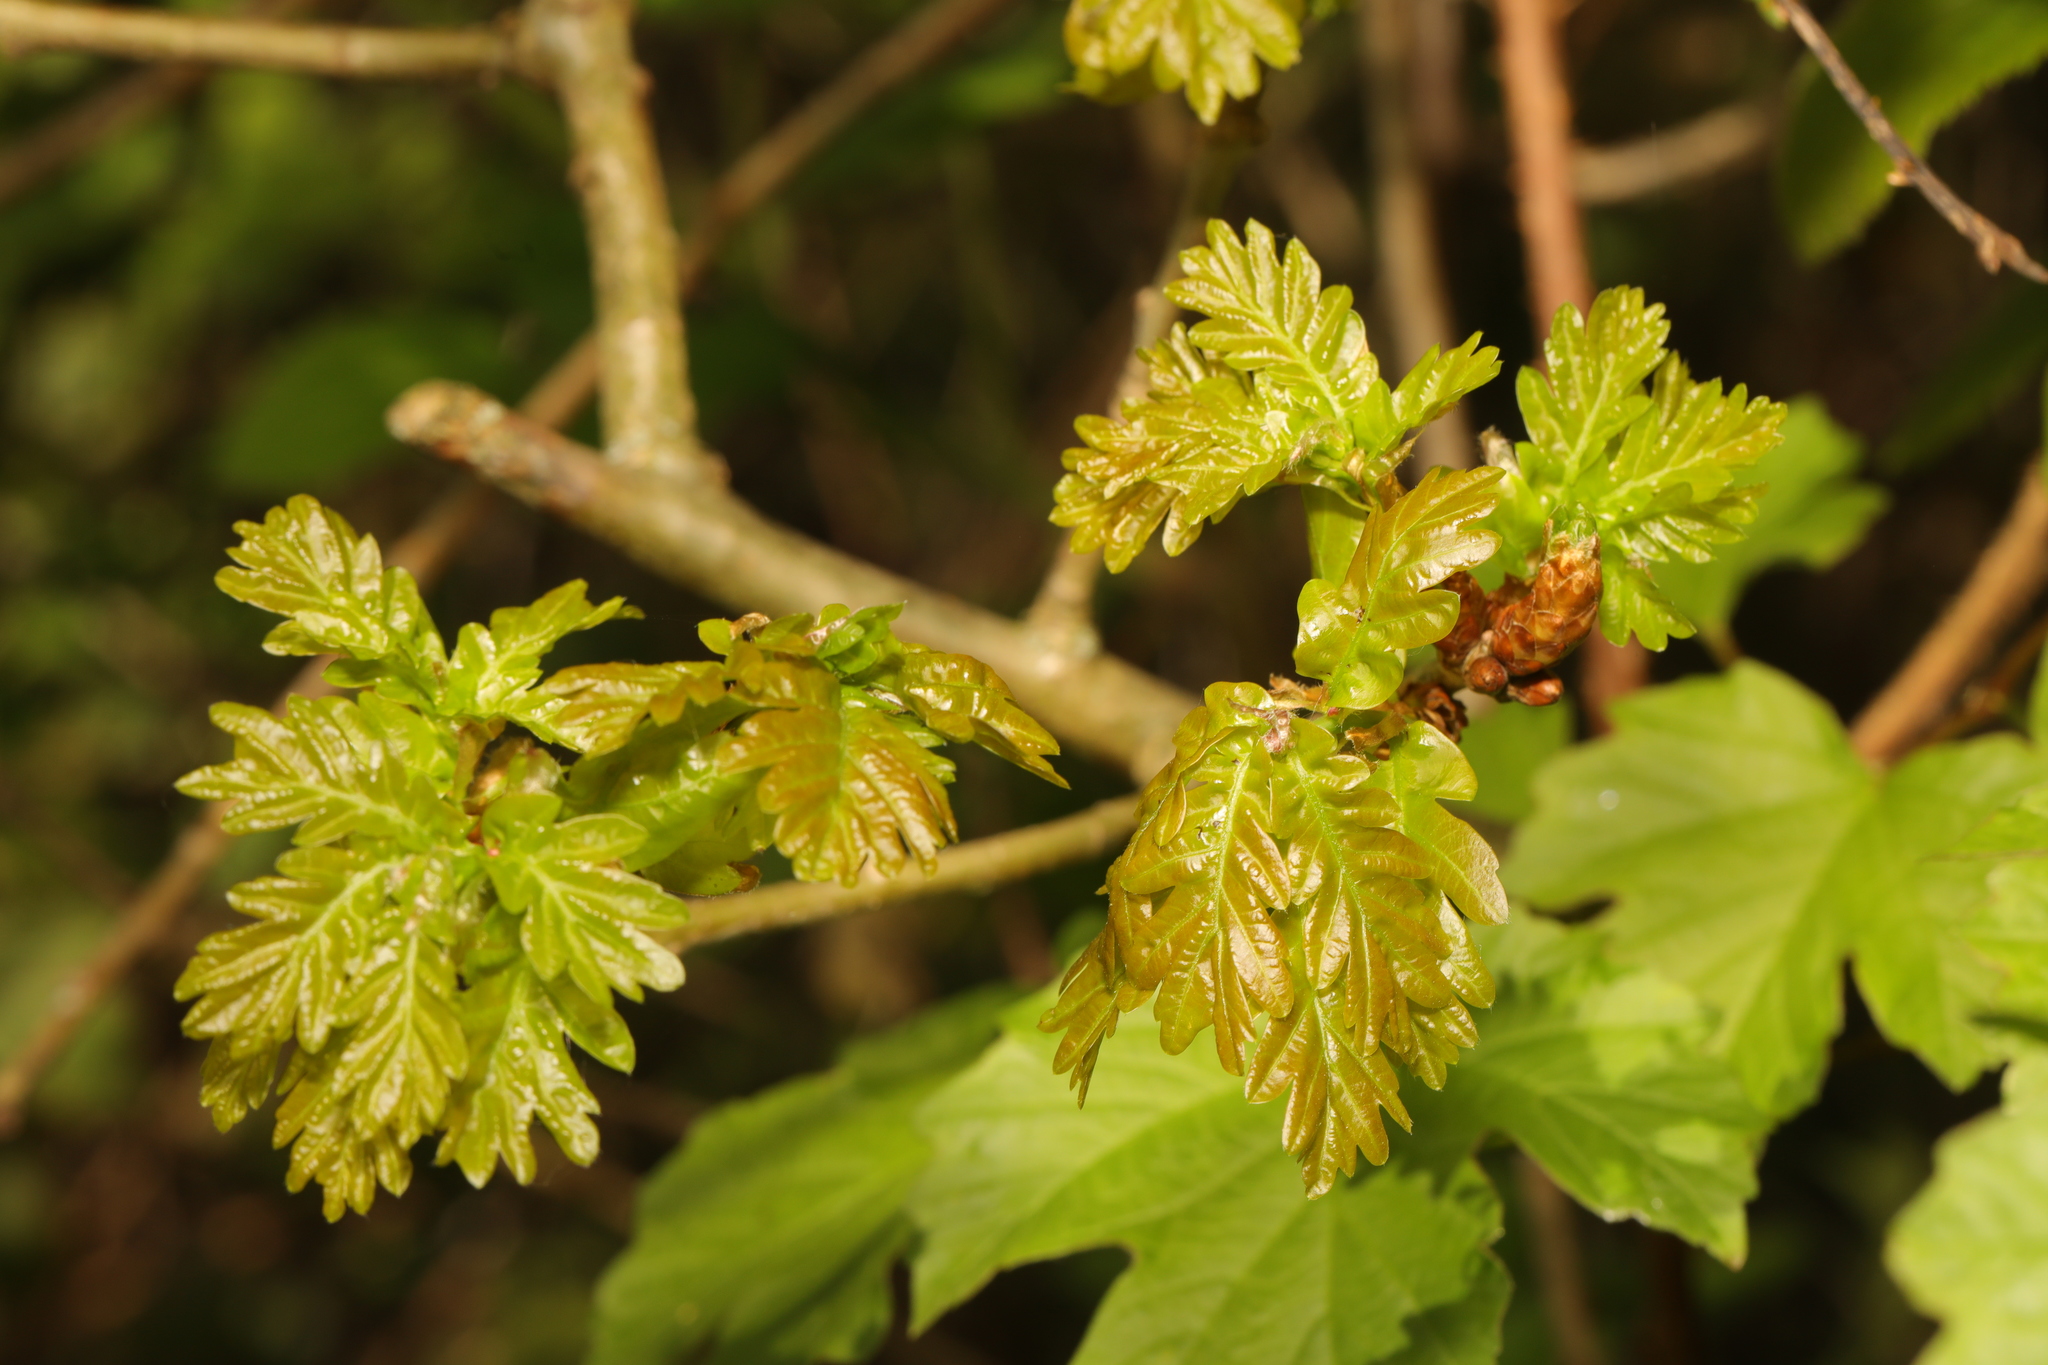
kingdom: Plantae
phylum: Tracheophyta
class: Magnoliopsida
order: Fagales
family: Fagaceae
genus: Quercus
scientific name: Quercus robur
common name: Pedunculate oak
